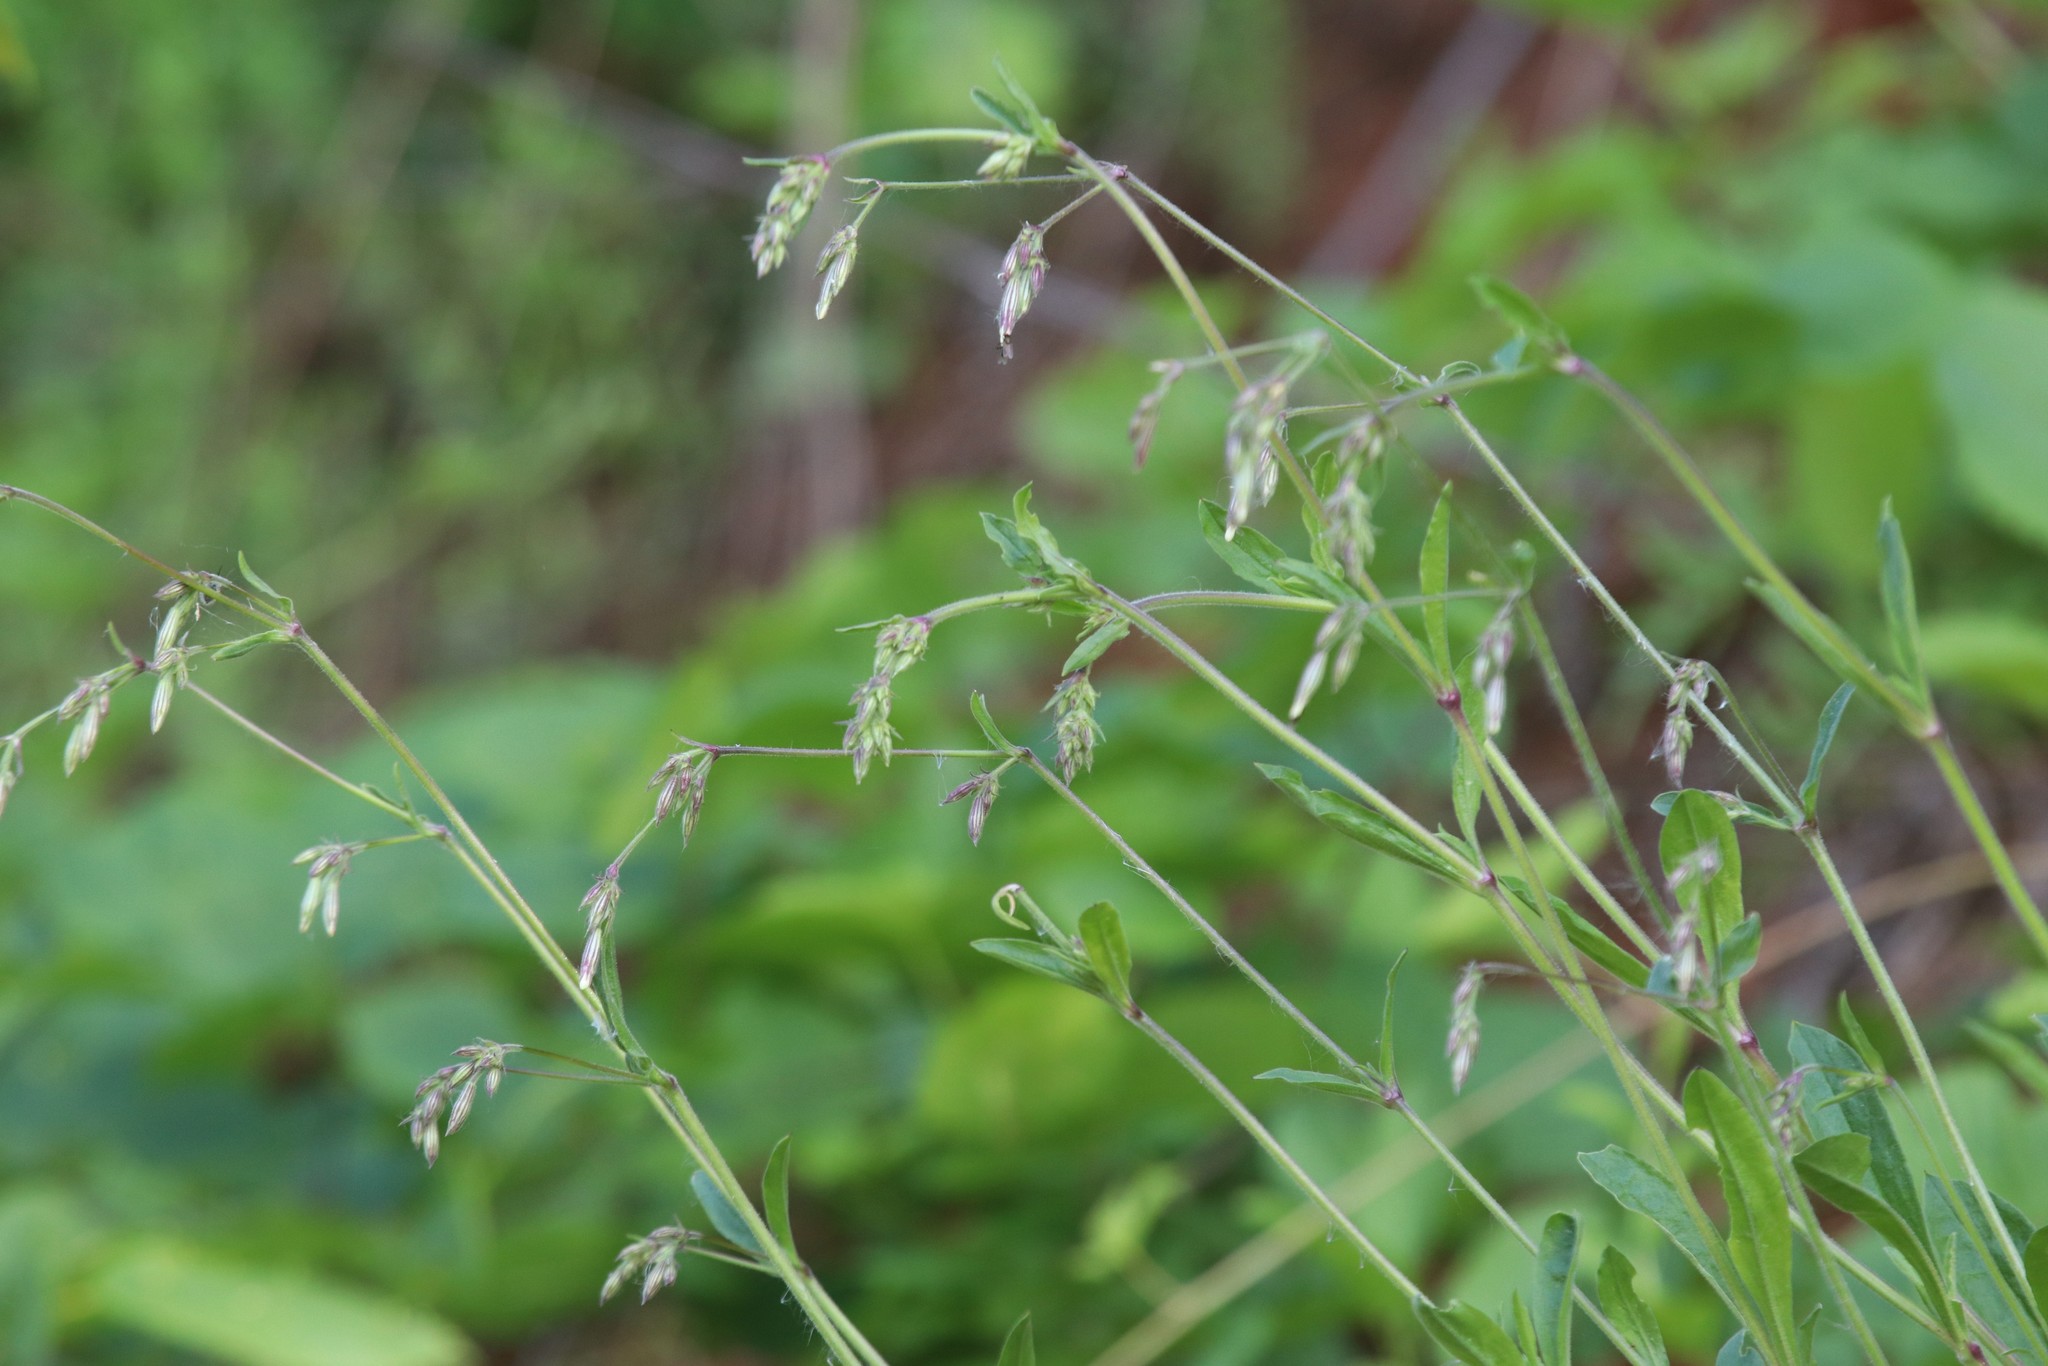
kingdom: Plantae
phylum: Tracheophyta
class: Magnoliopsida
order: Caryophyllales
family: Caryophyllaceae
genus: Silene
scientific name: Silene nutans
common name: Nottingham catchfly
